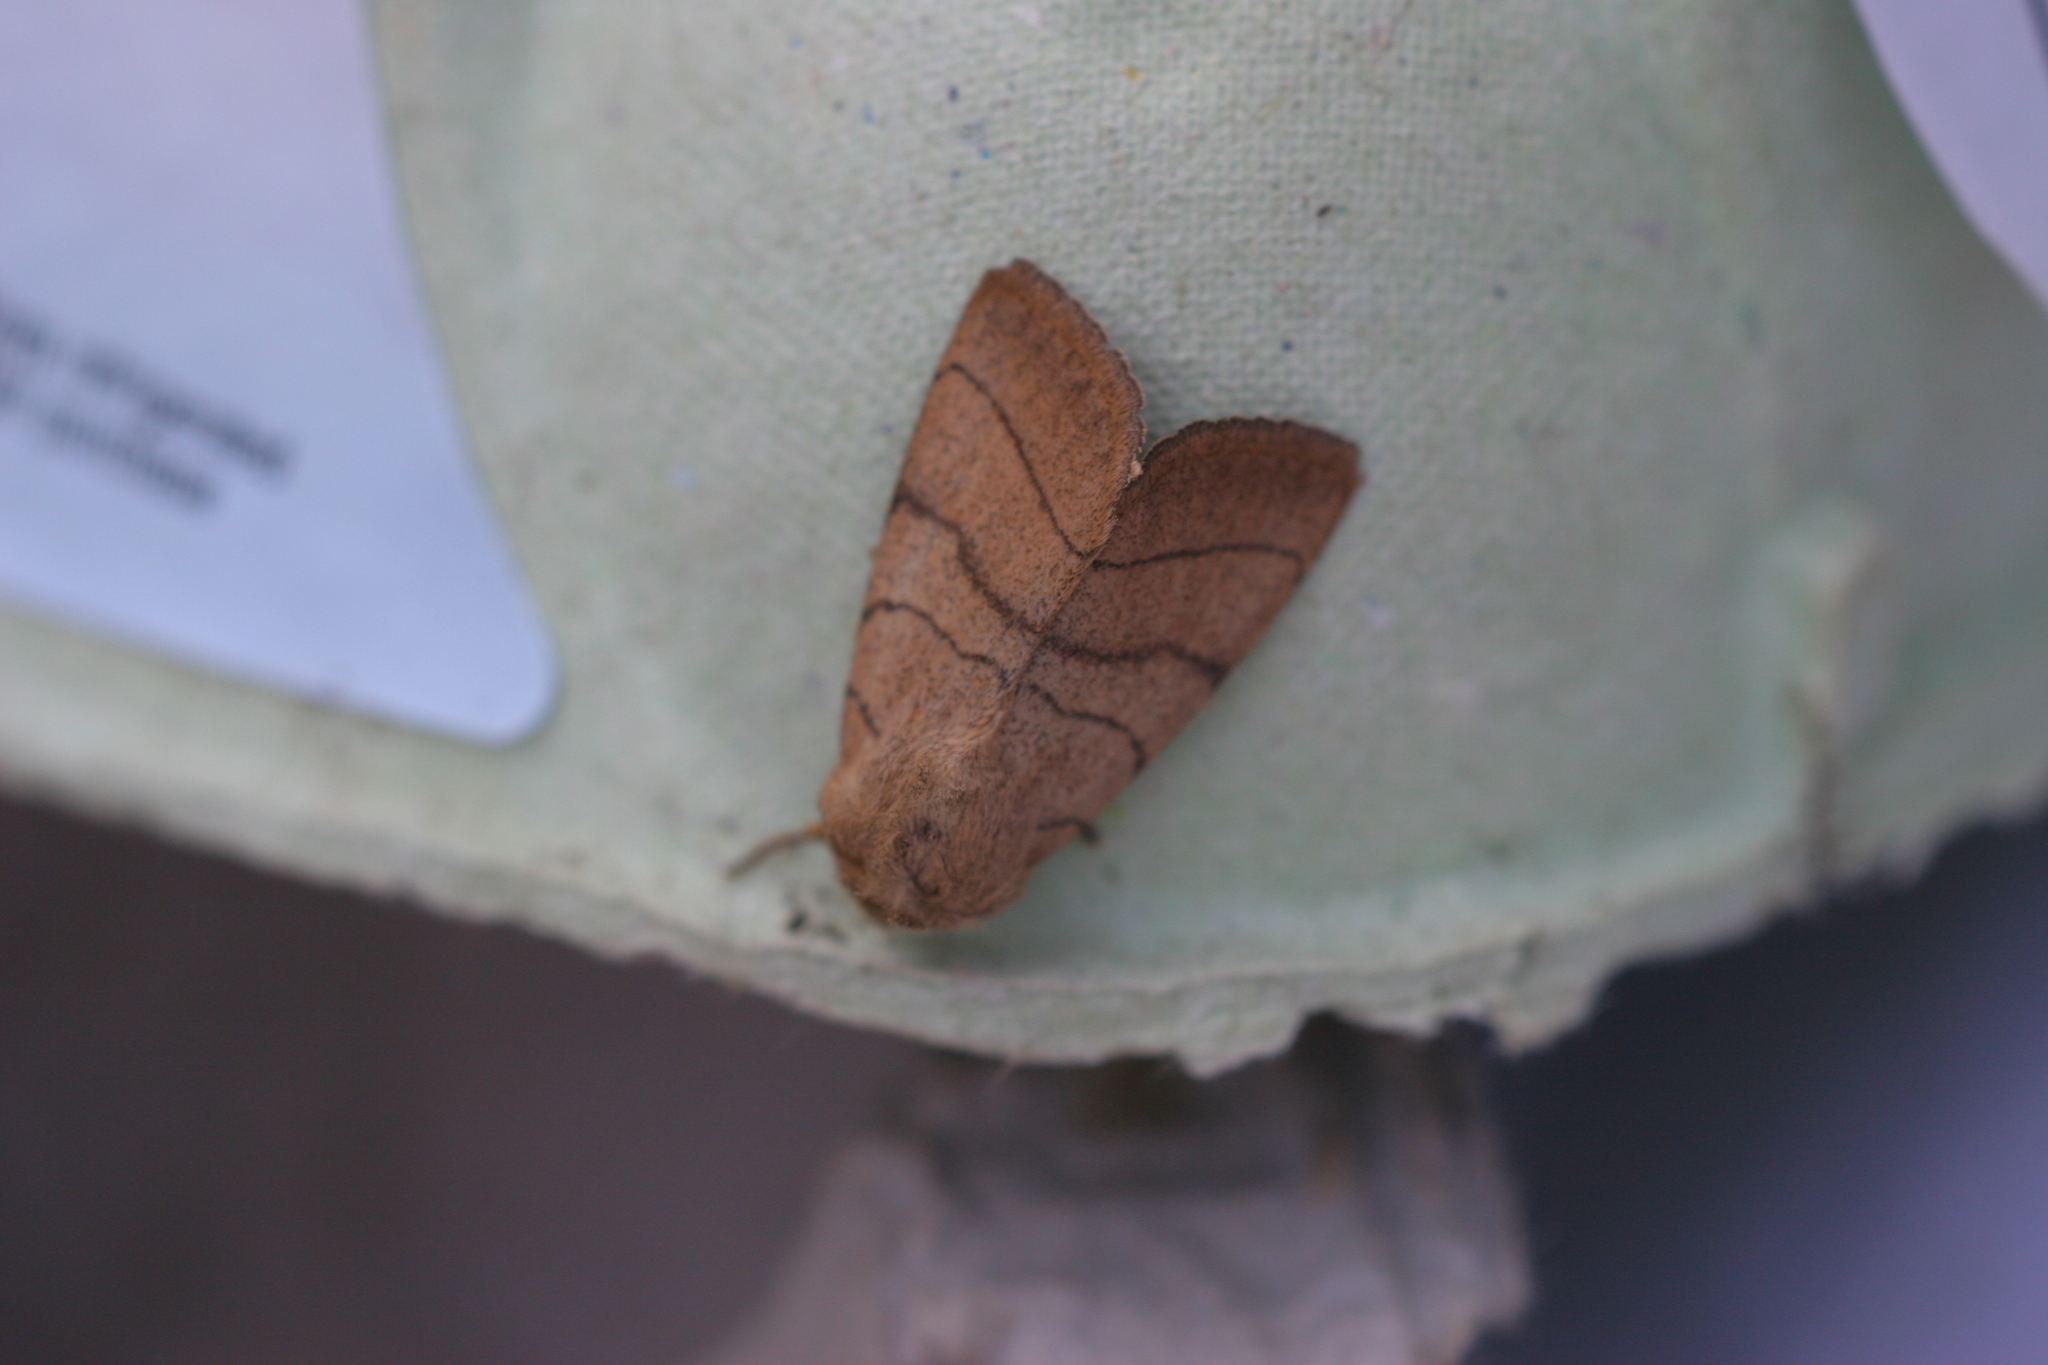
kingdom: Animalia
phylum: Arthropoda
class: Insecta
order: Lepidoptera
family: Noctuidae
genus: Charanyca
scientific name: Charanyca trigrammica
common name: Treble lines
